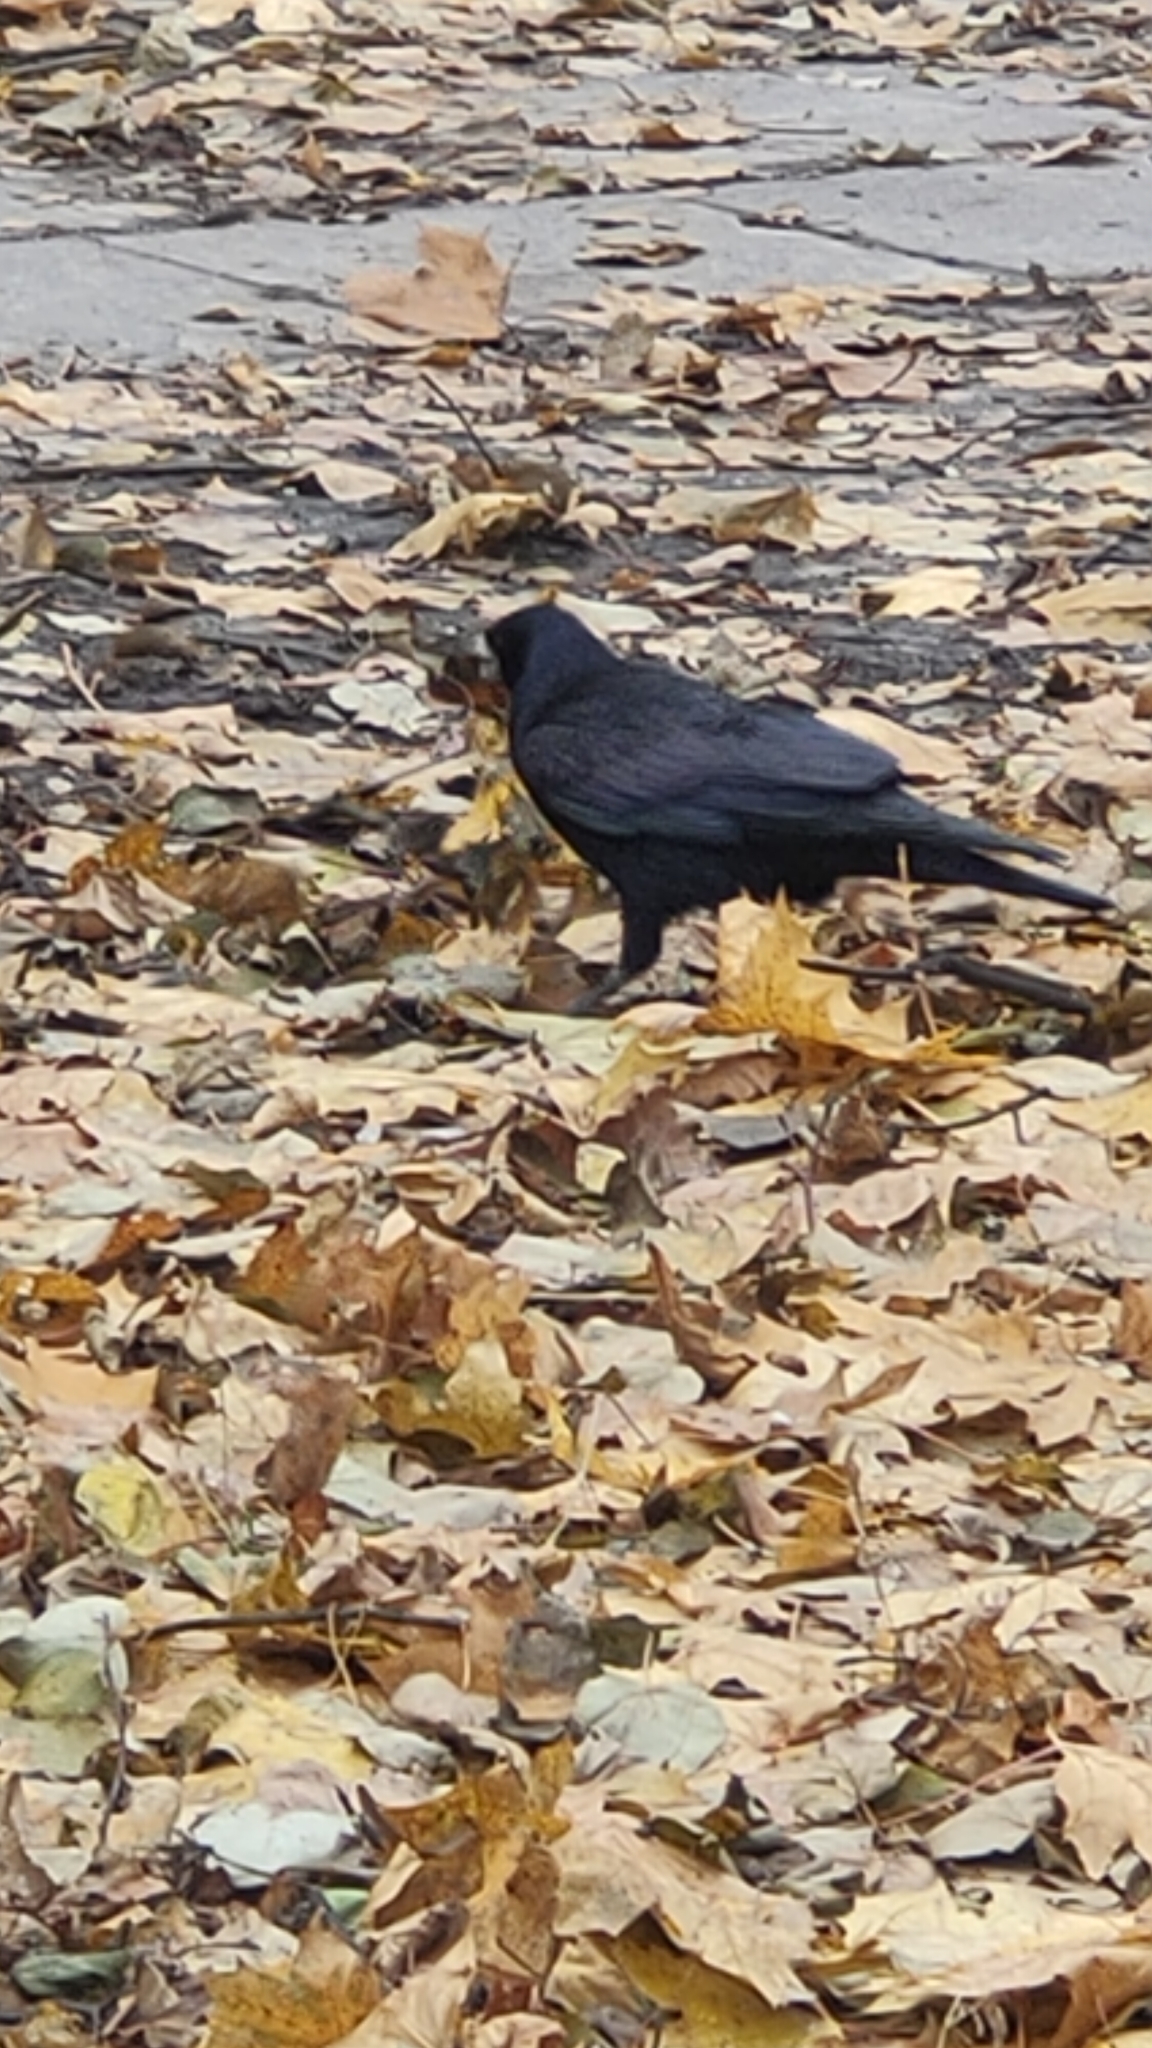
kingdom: Animalia
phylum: Chordata
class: Aves
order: Passeriformes
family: Corvidae
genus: Corvus
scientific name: Corvus frugilegus
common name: Rook
